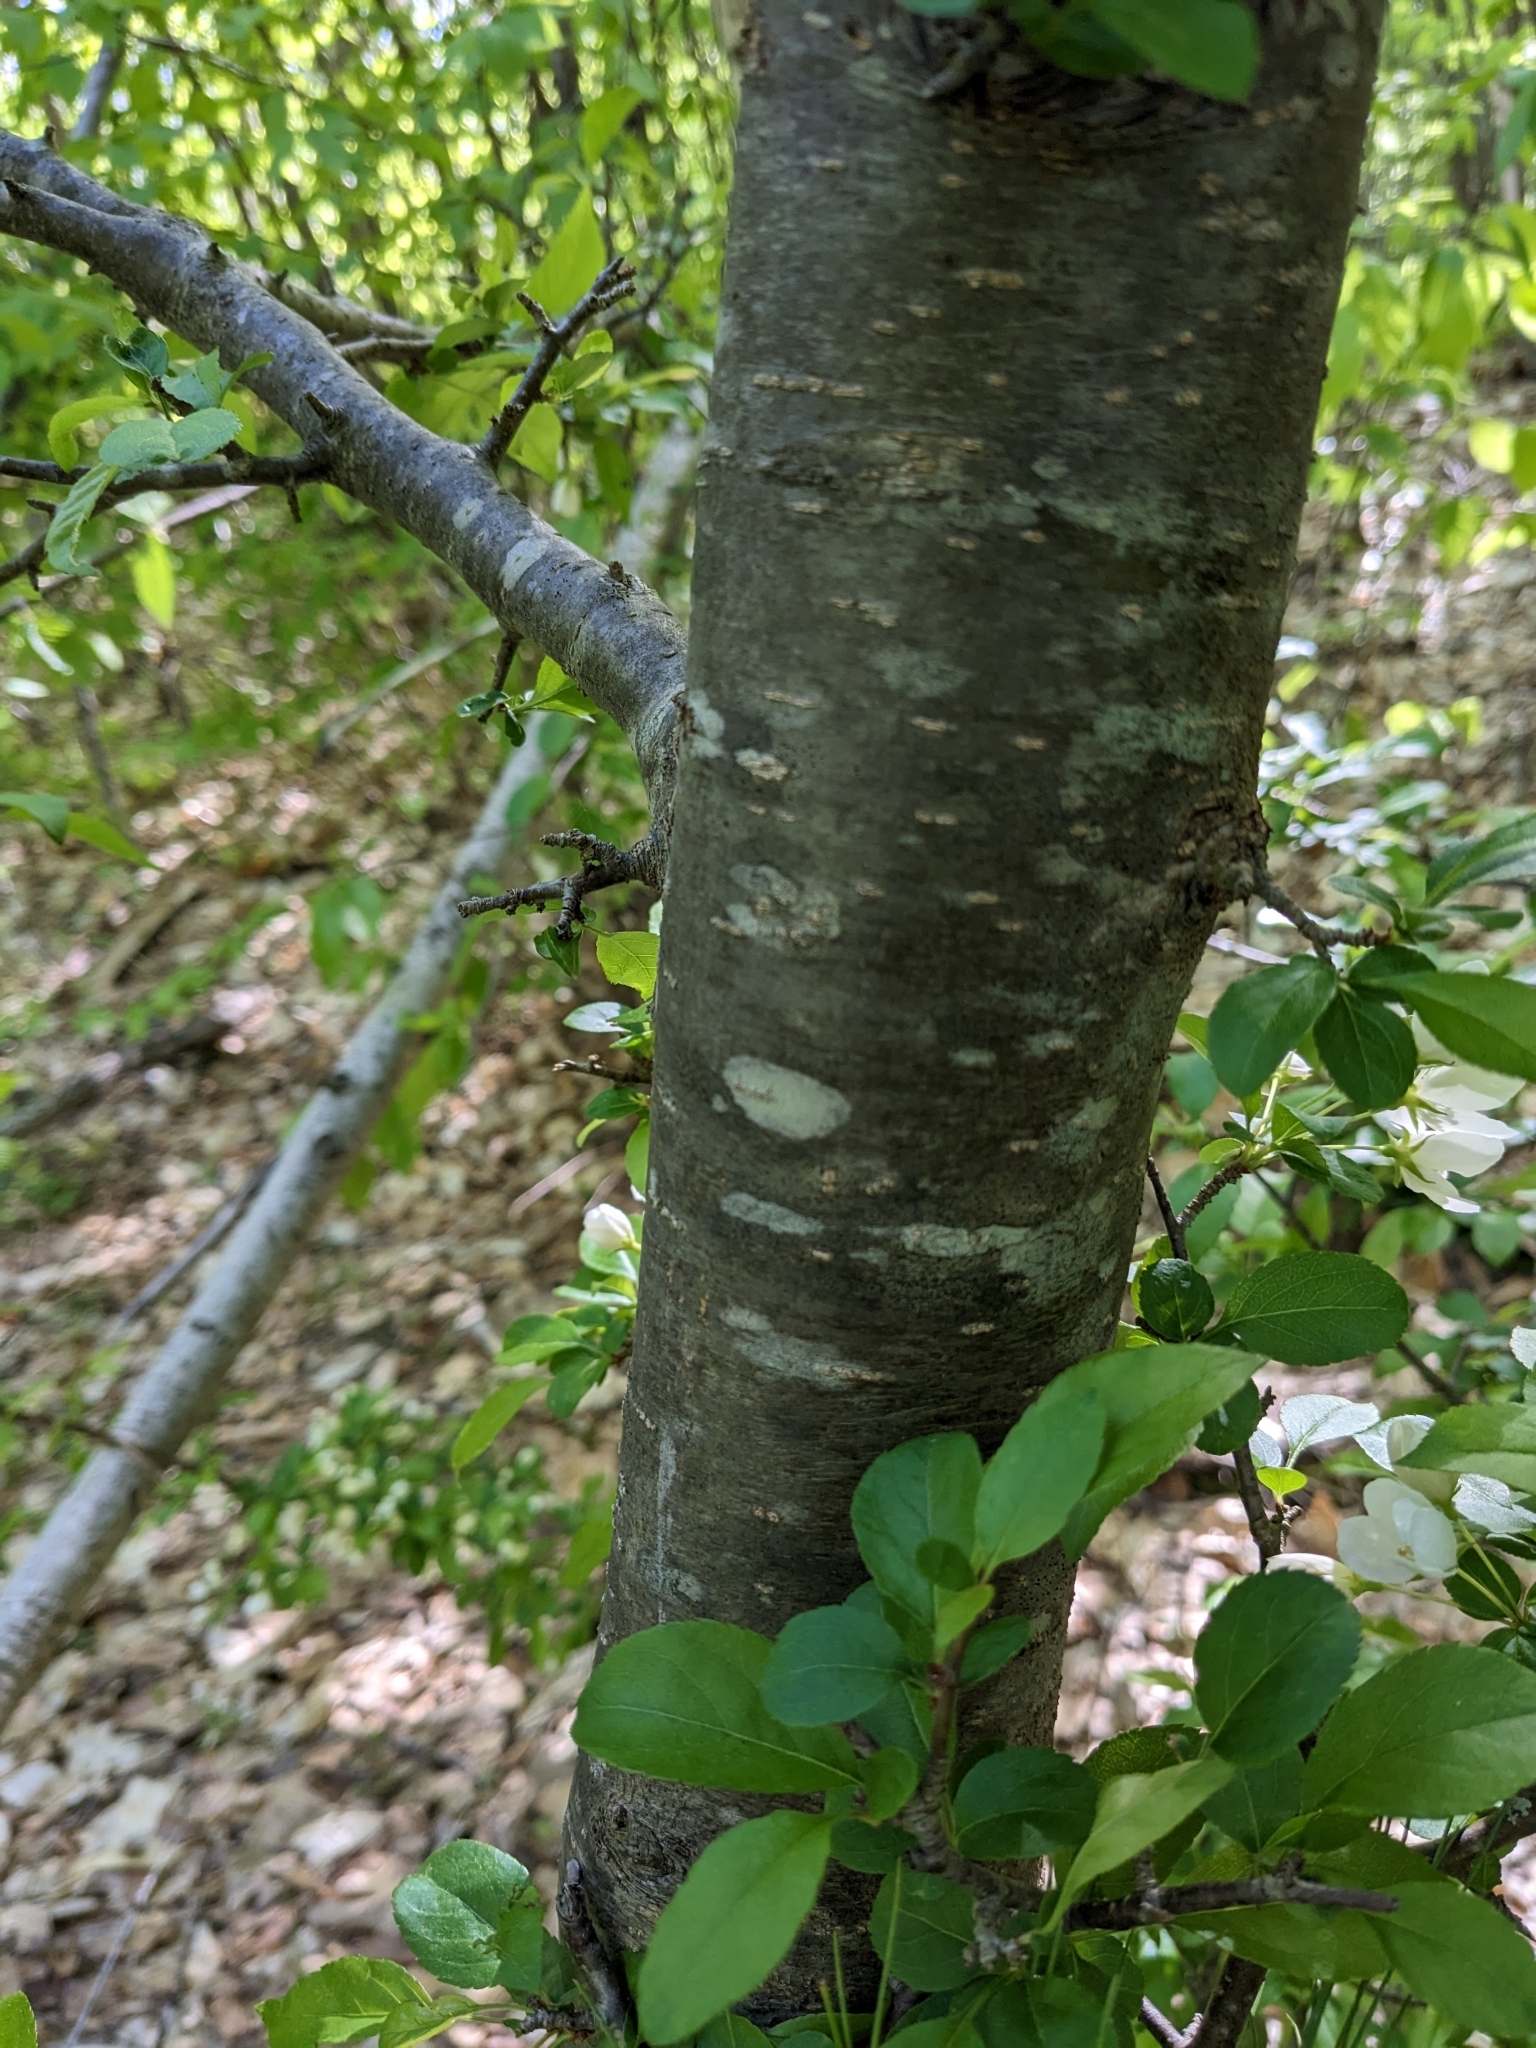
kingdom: Plantae
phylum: Tracheophyta
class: Magnoliopsida
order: Rosales
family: Rosaceae
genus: Malus
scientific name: Malus
